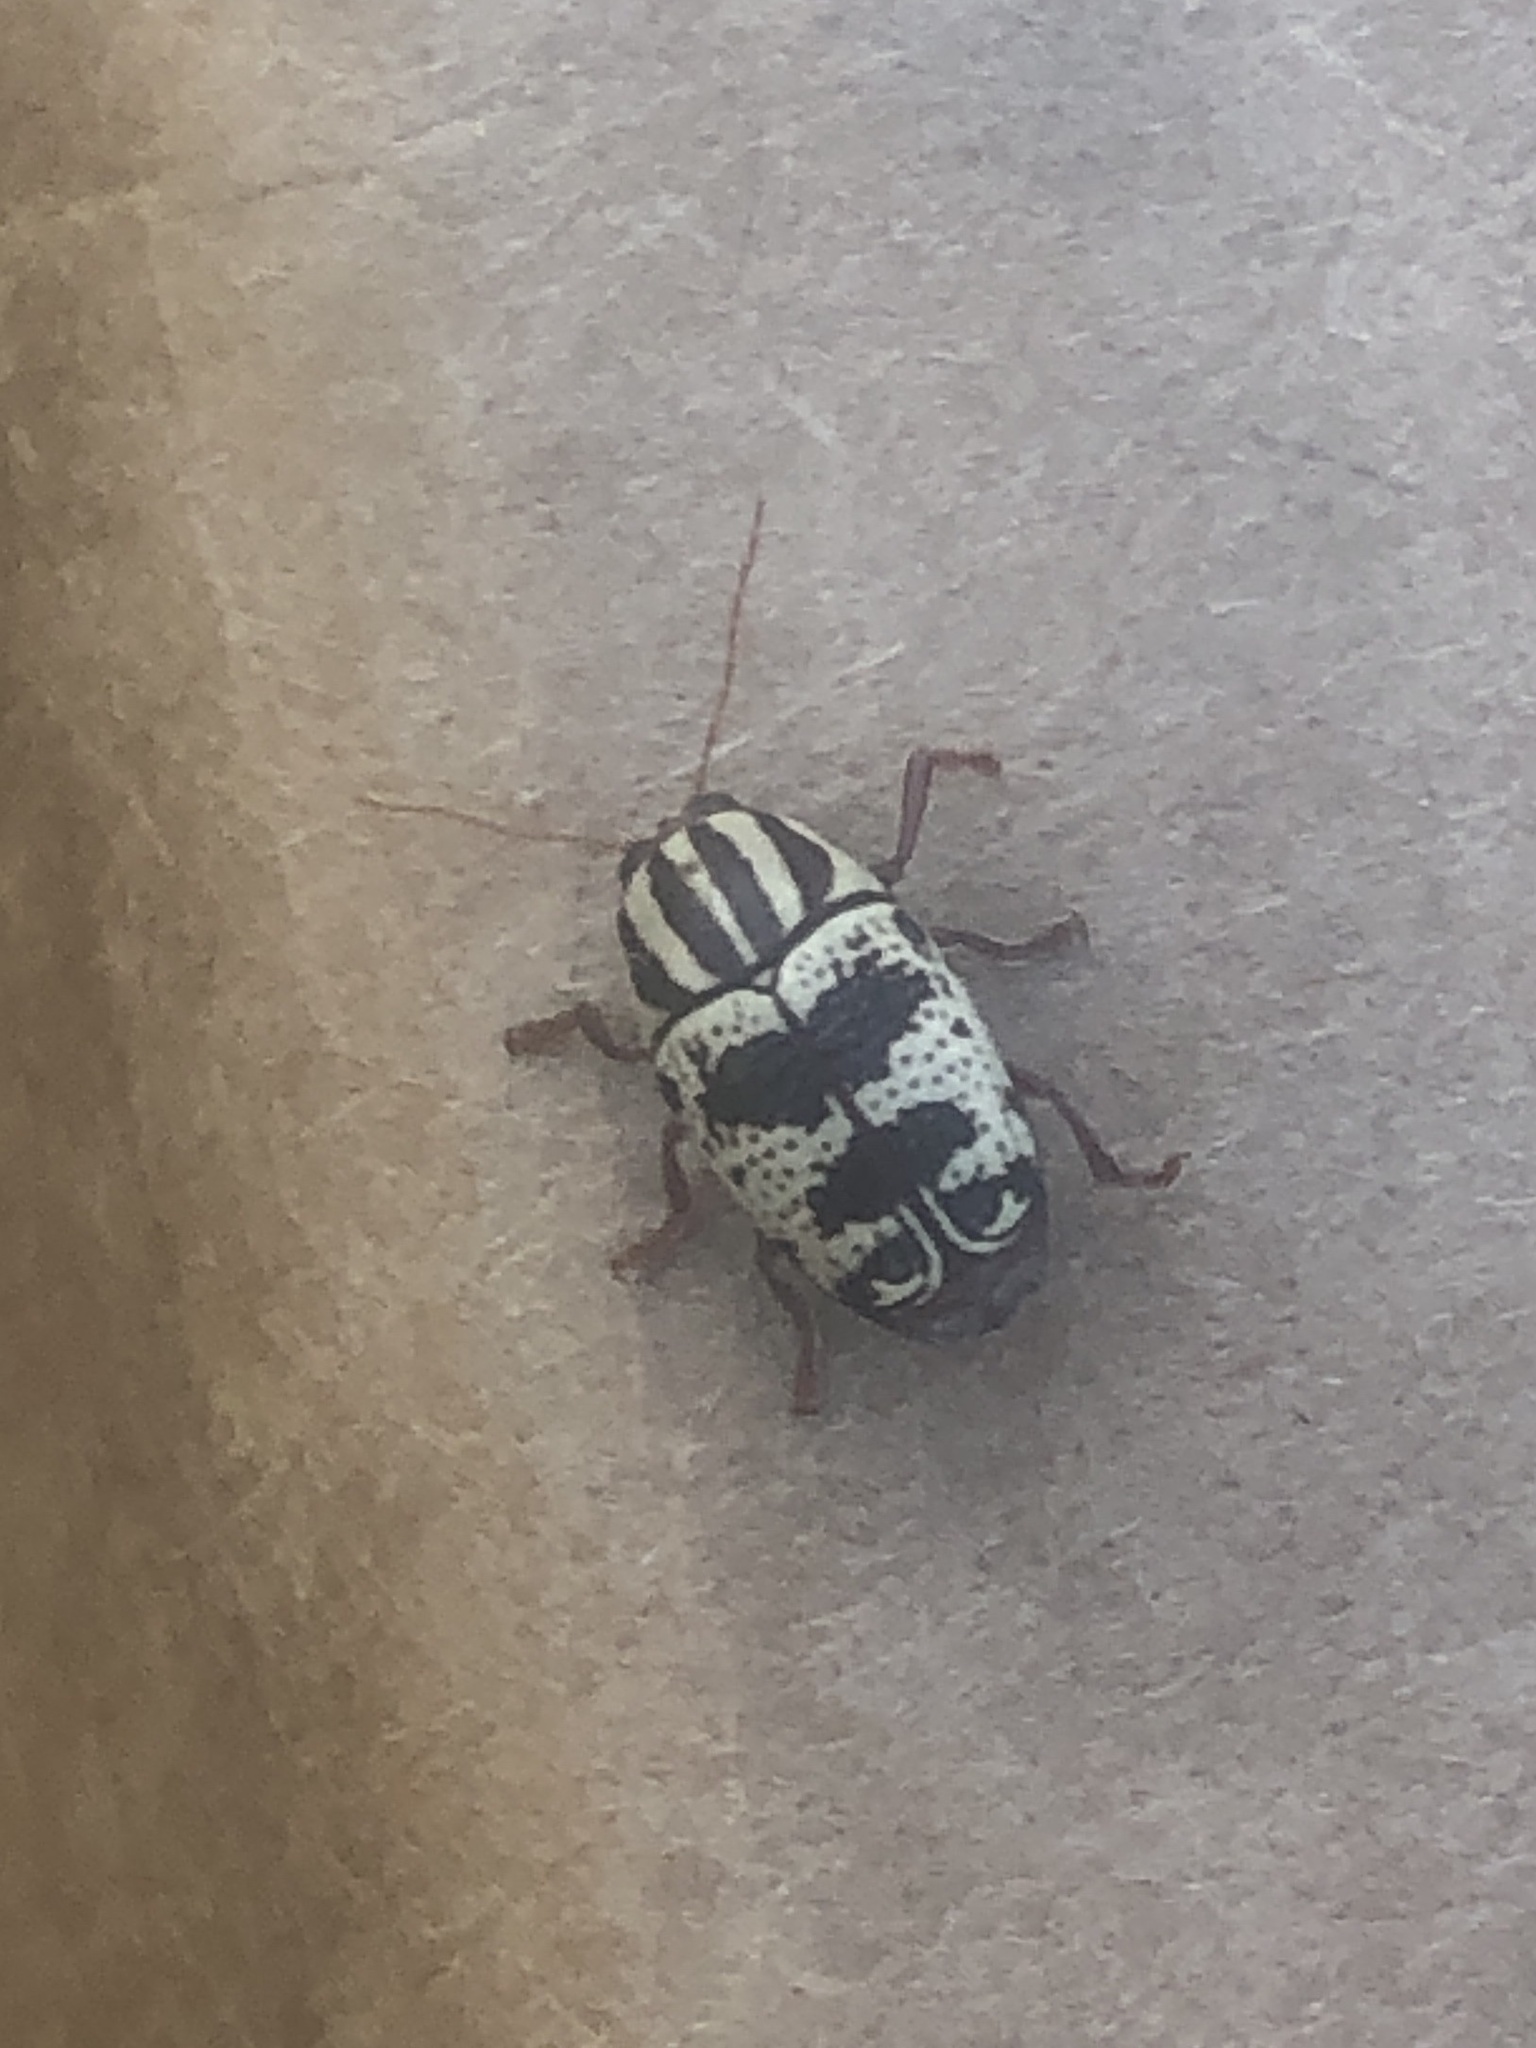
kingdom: Animalia
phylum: Arthropoda
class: Insecta
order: Coleoptera
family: Chrysomelidae
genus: Cryptocephalus
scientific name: Cryptocephalus leucomelas
